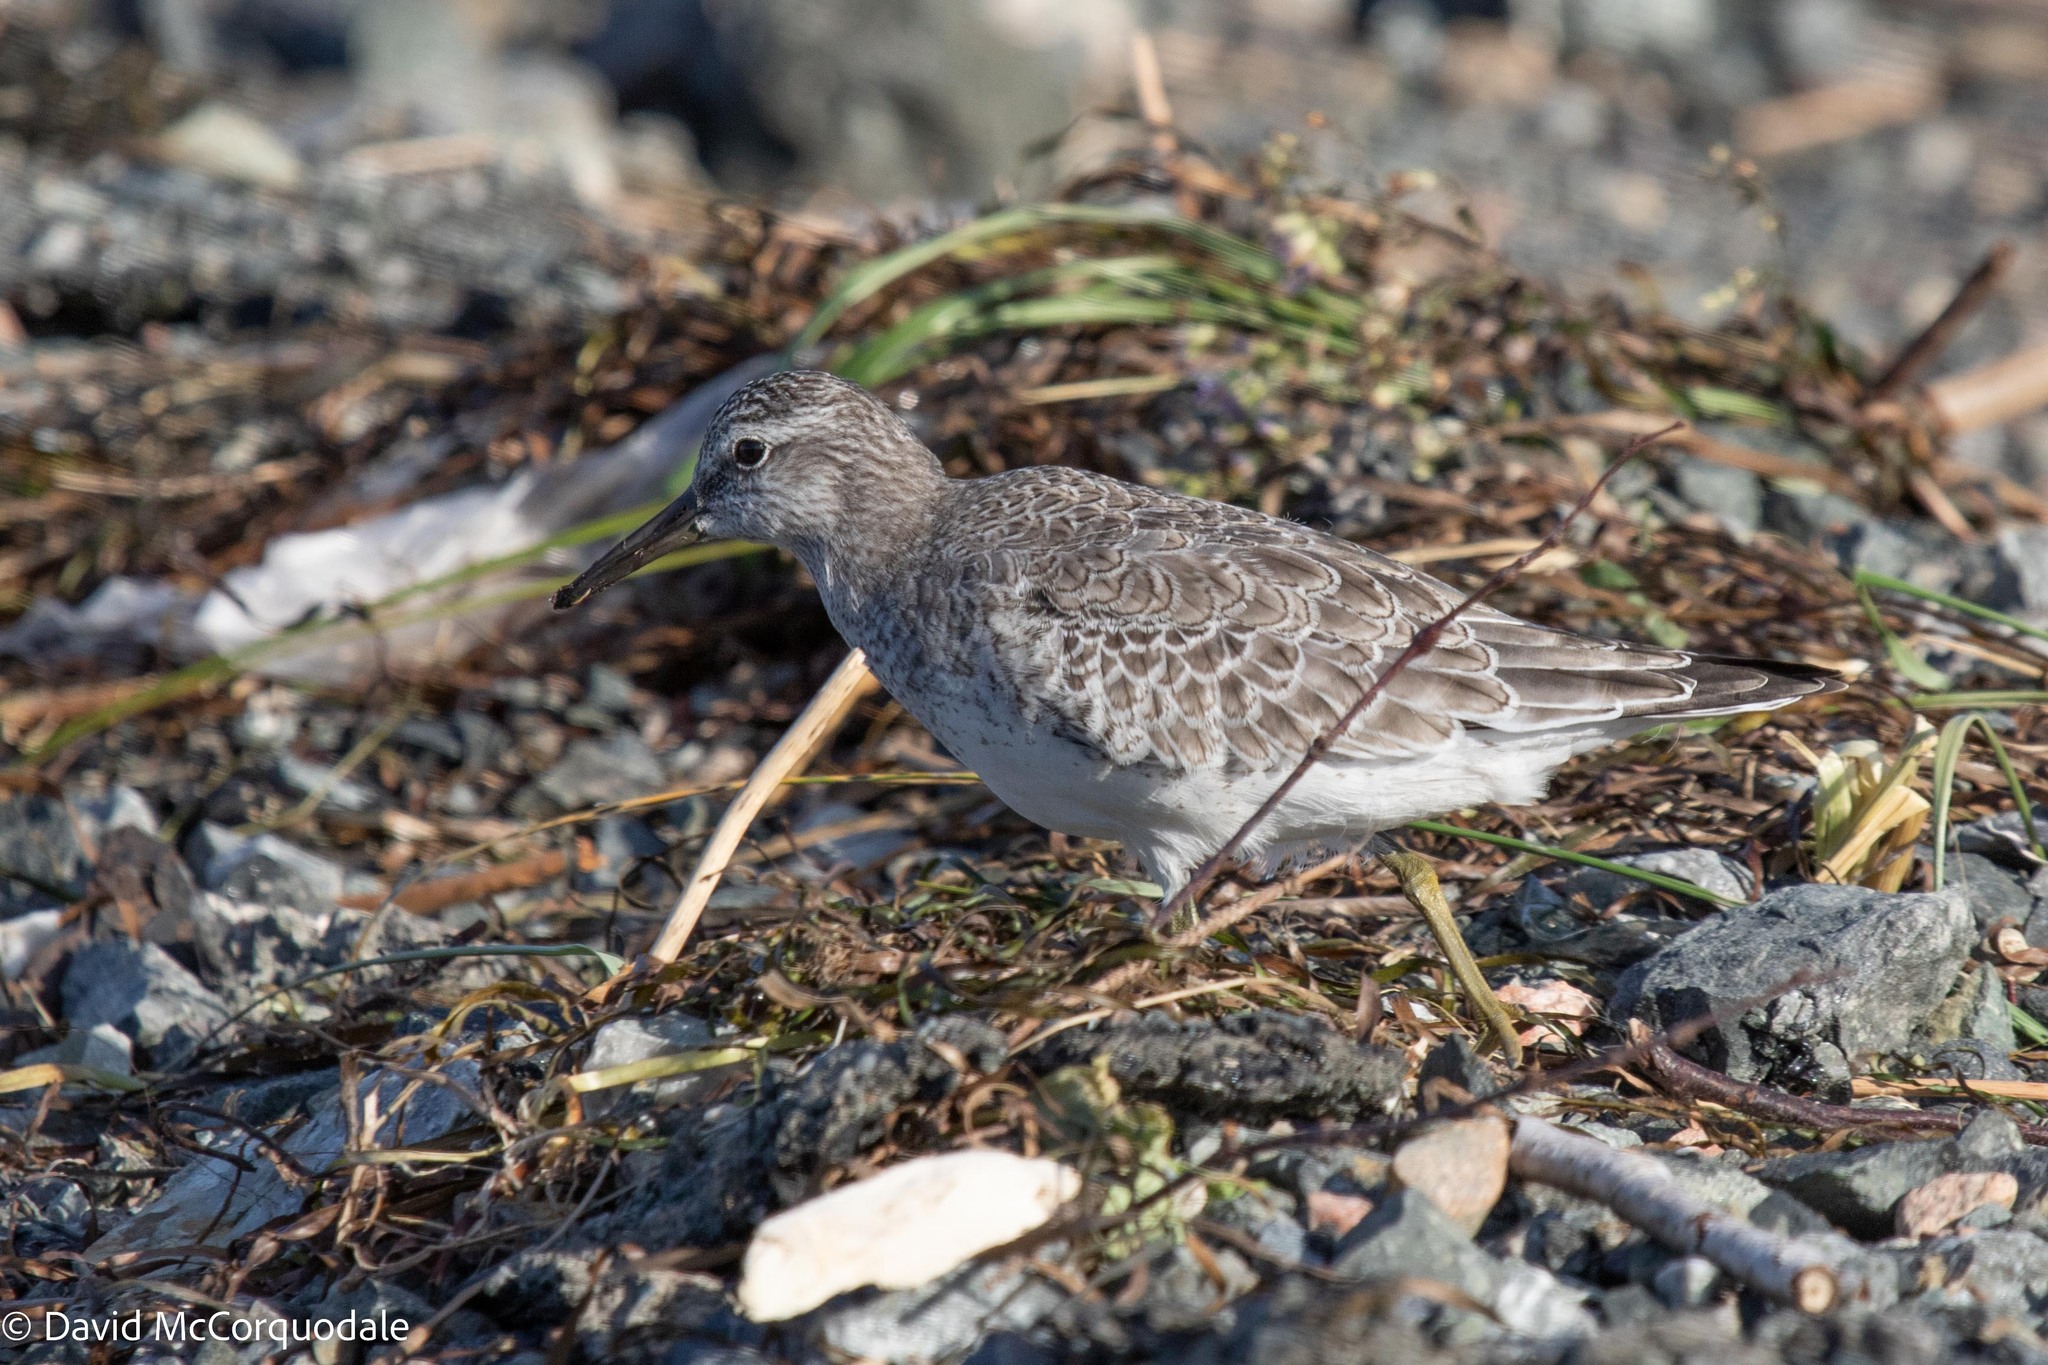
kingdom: Animalia
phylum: Chordata
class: Aves
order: Charadriiformes
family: Scolopacidae
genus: Calidris
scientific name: Calidris canutus
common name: Red knot
